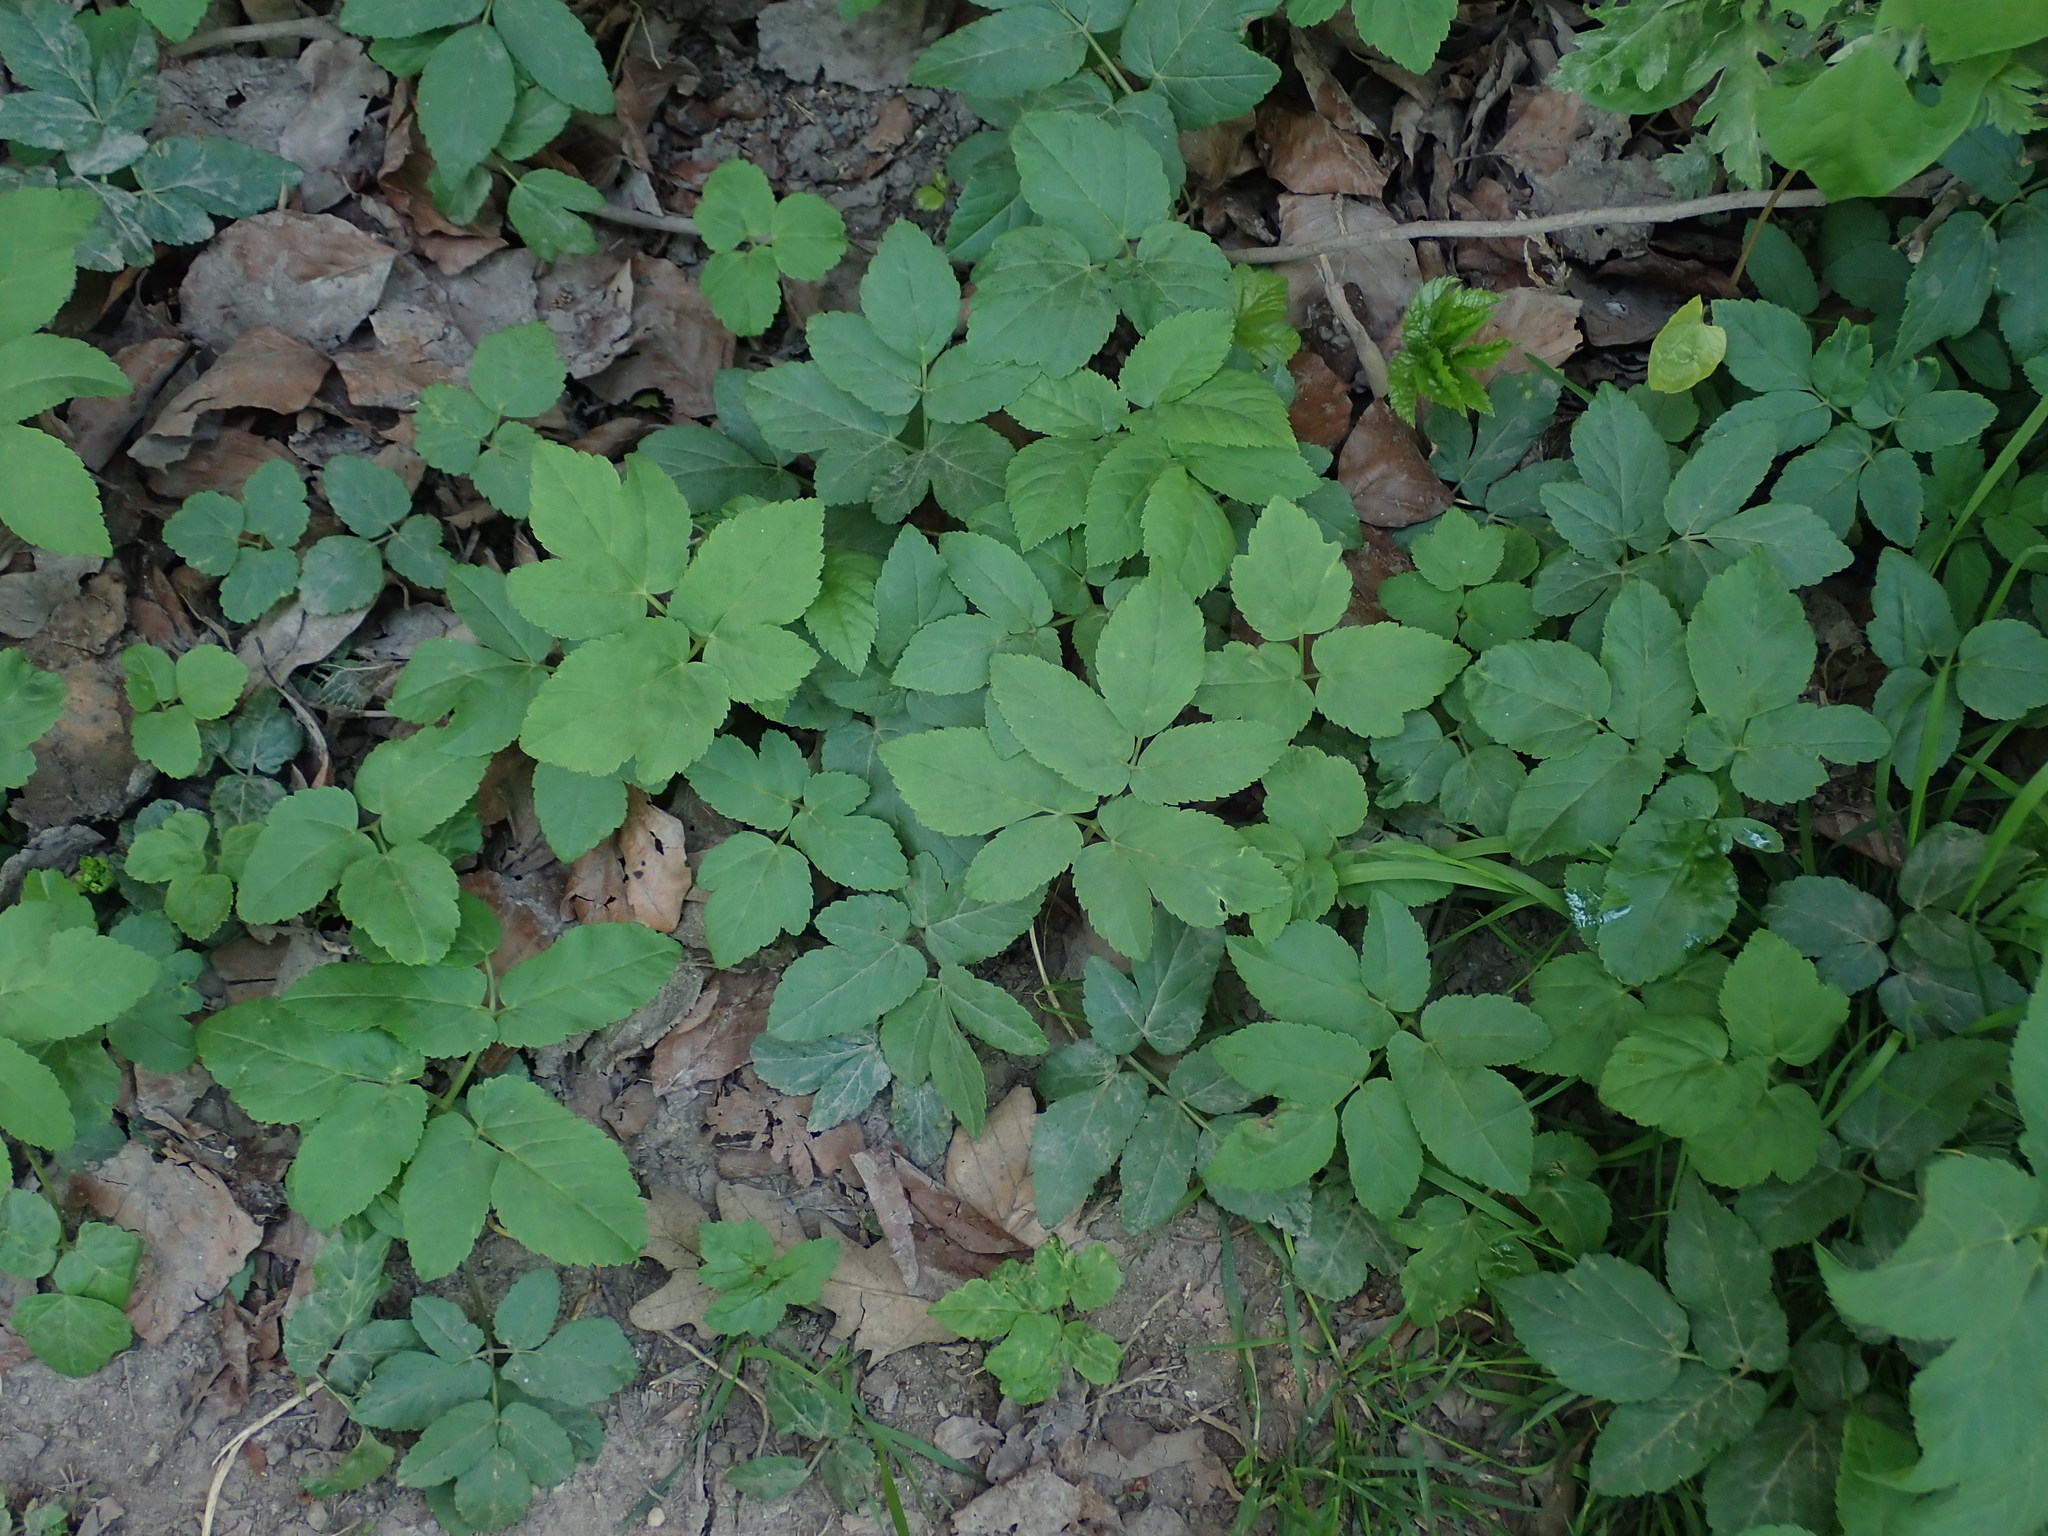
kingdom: Plantae
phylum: Tracheophyta
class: Magnoliopsida
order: Apiales
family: Apiaceae
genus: Aegopodium
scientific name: Aegopodium podagraria
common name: Ground-elder
